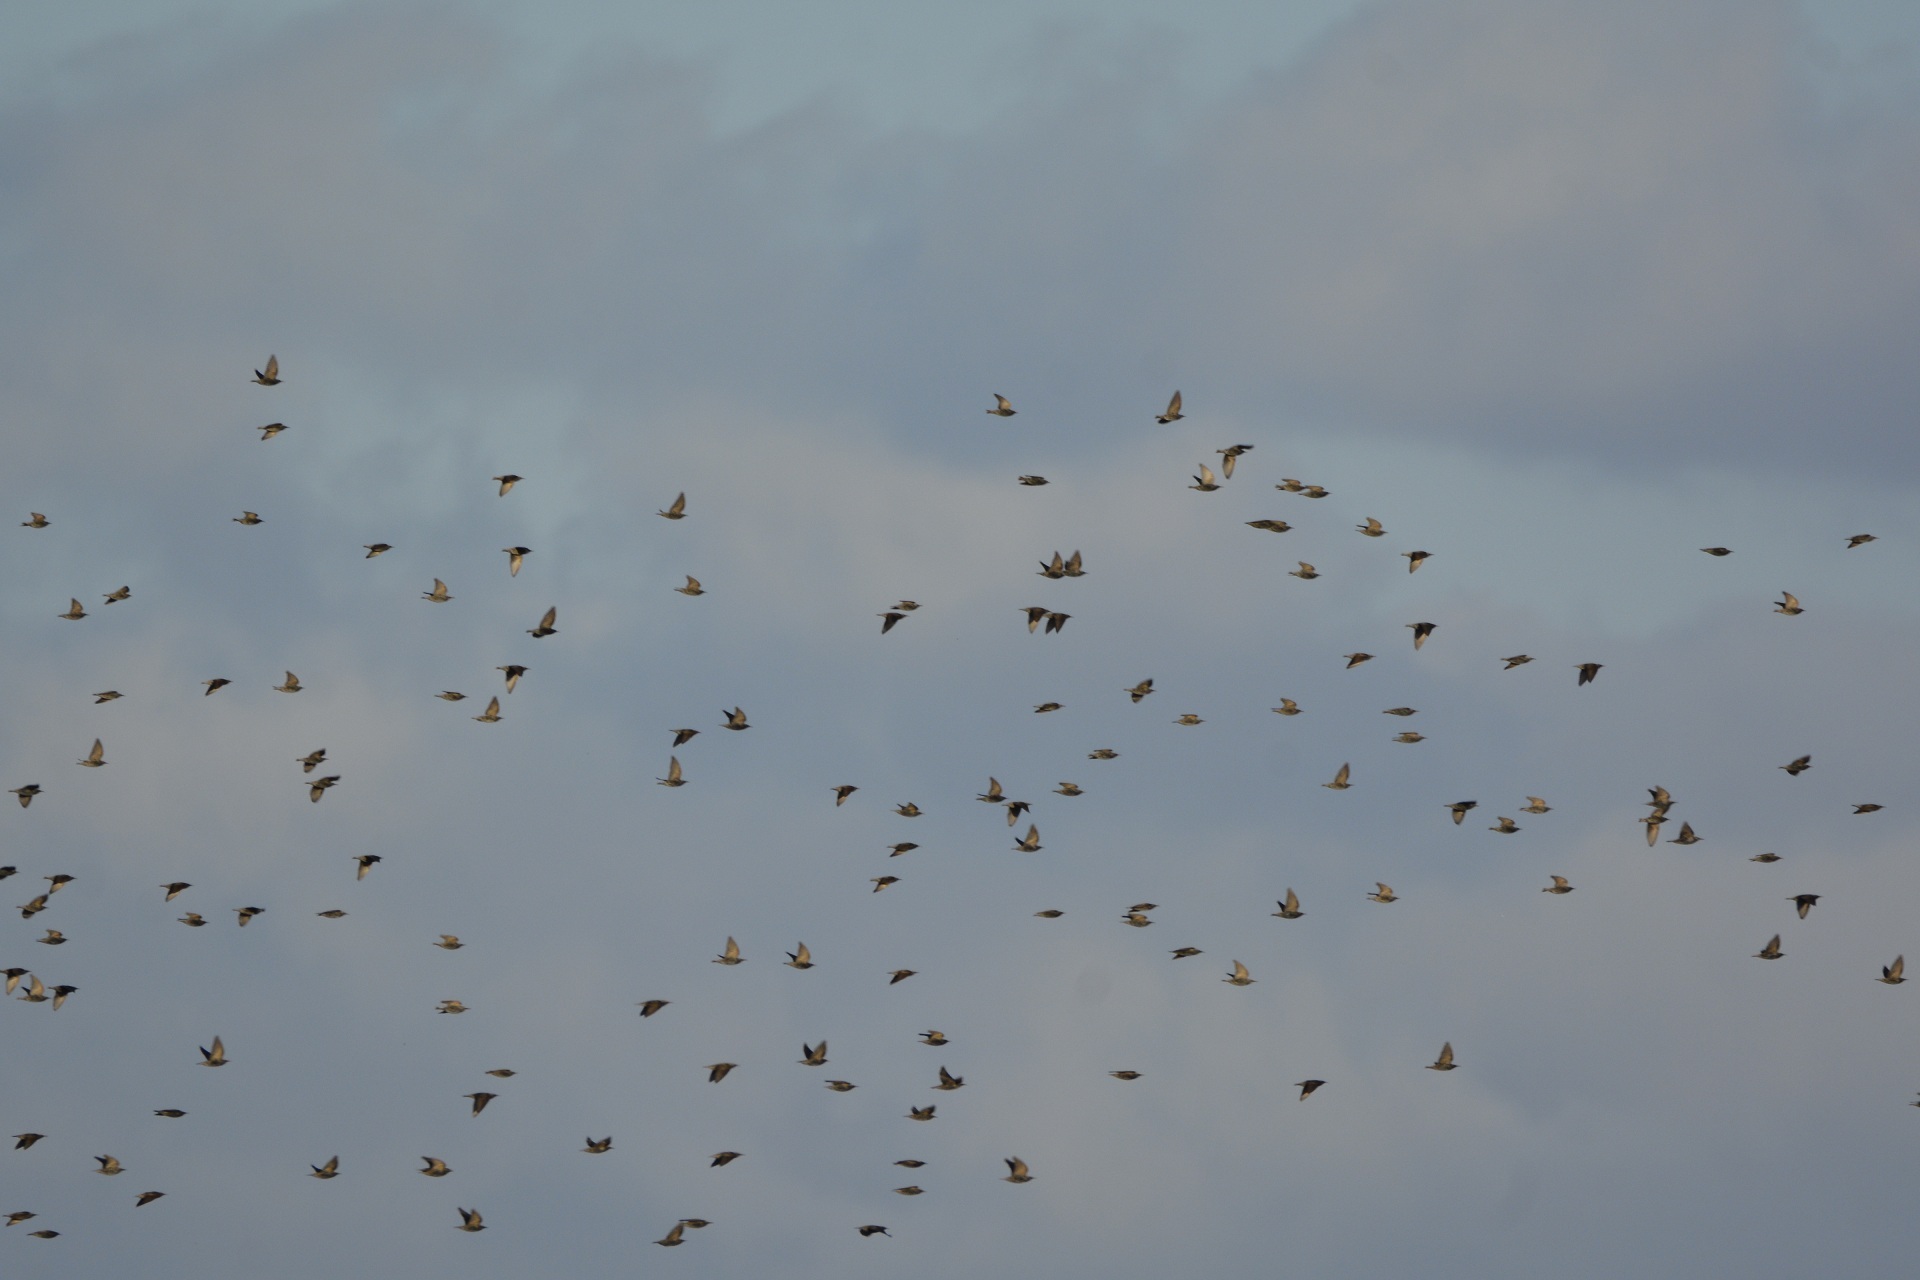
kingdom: Animalia
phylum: Chordata
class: Aves
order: Passeriformes
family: Sturnidae
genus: Sturnus
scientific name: Sturnus vulgaris
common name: Common starling
